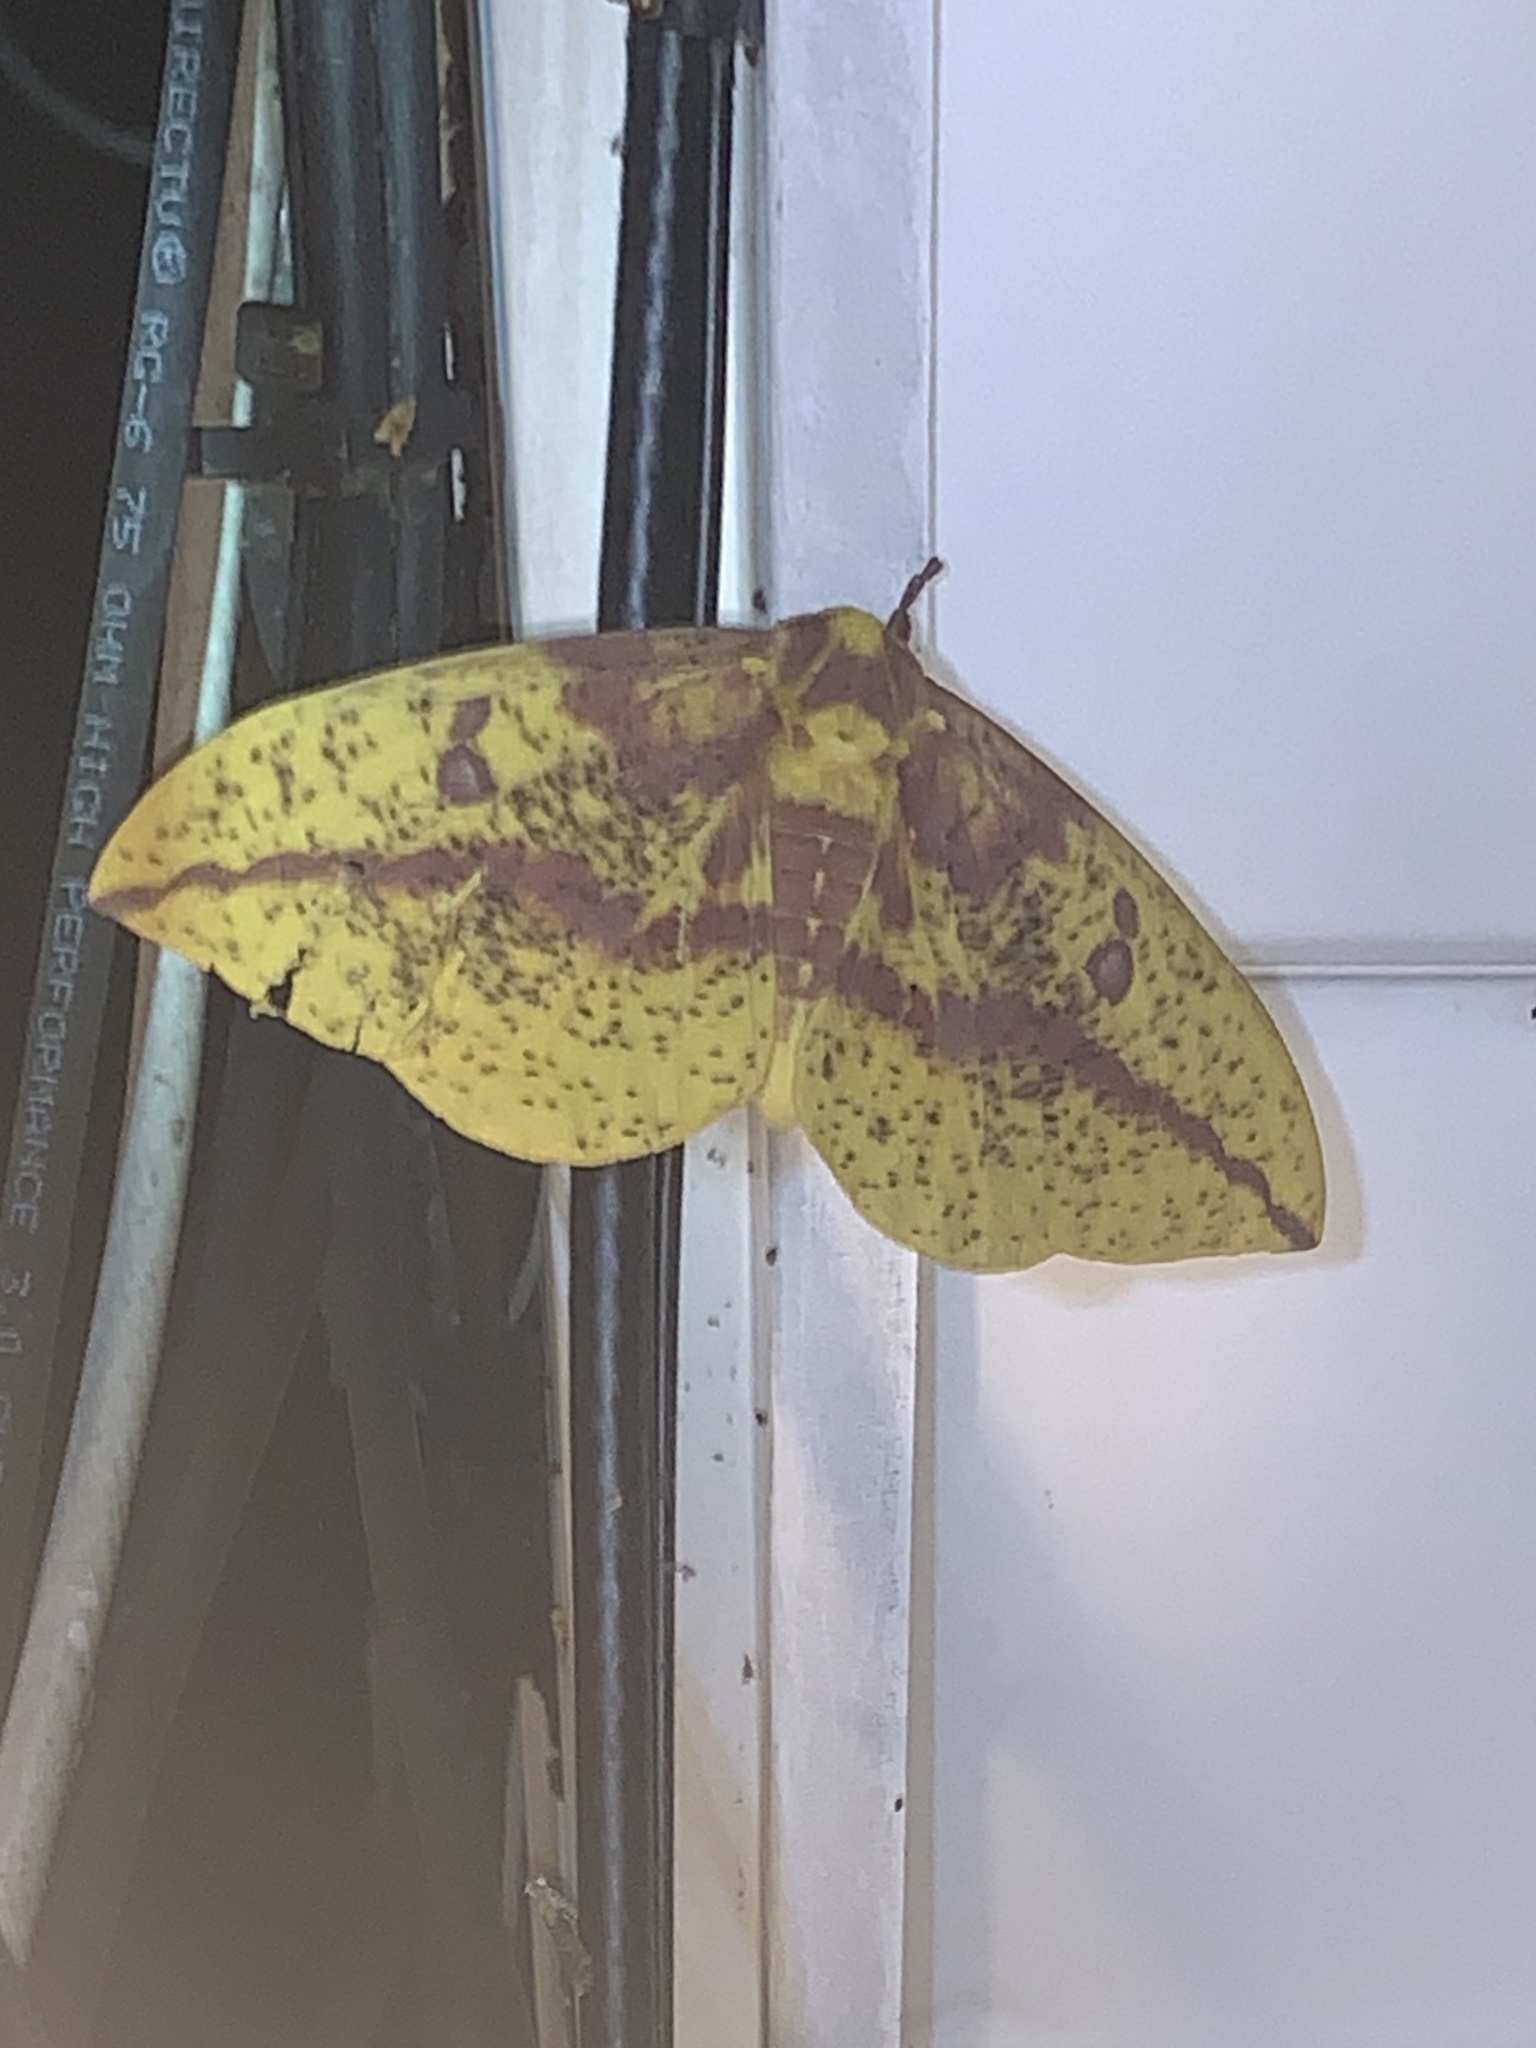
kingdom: Animalia
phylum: Arthropoda
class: Insecta
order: Lepidoptera
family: Saturniidae
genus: Eacles
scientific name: Eacles imperialis
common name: Imperial moth
